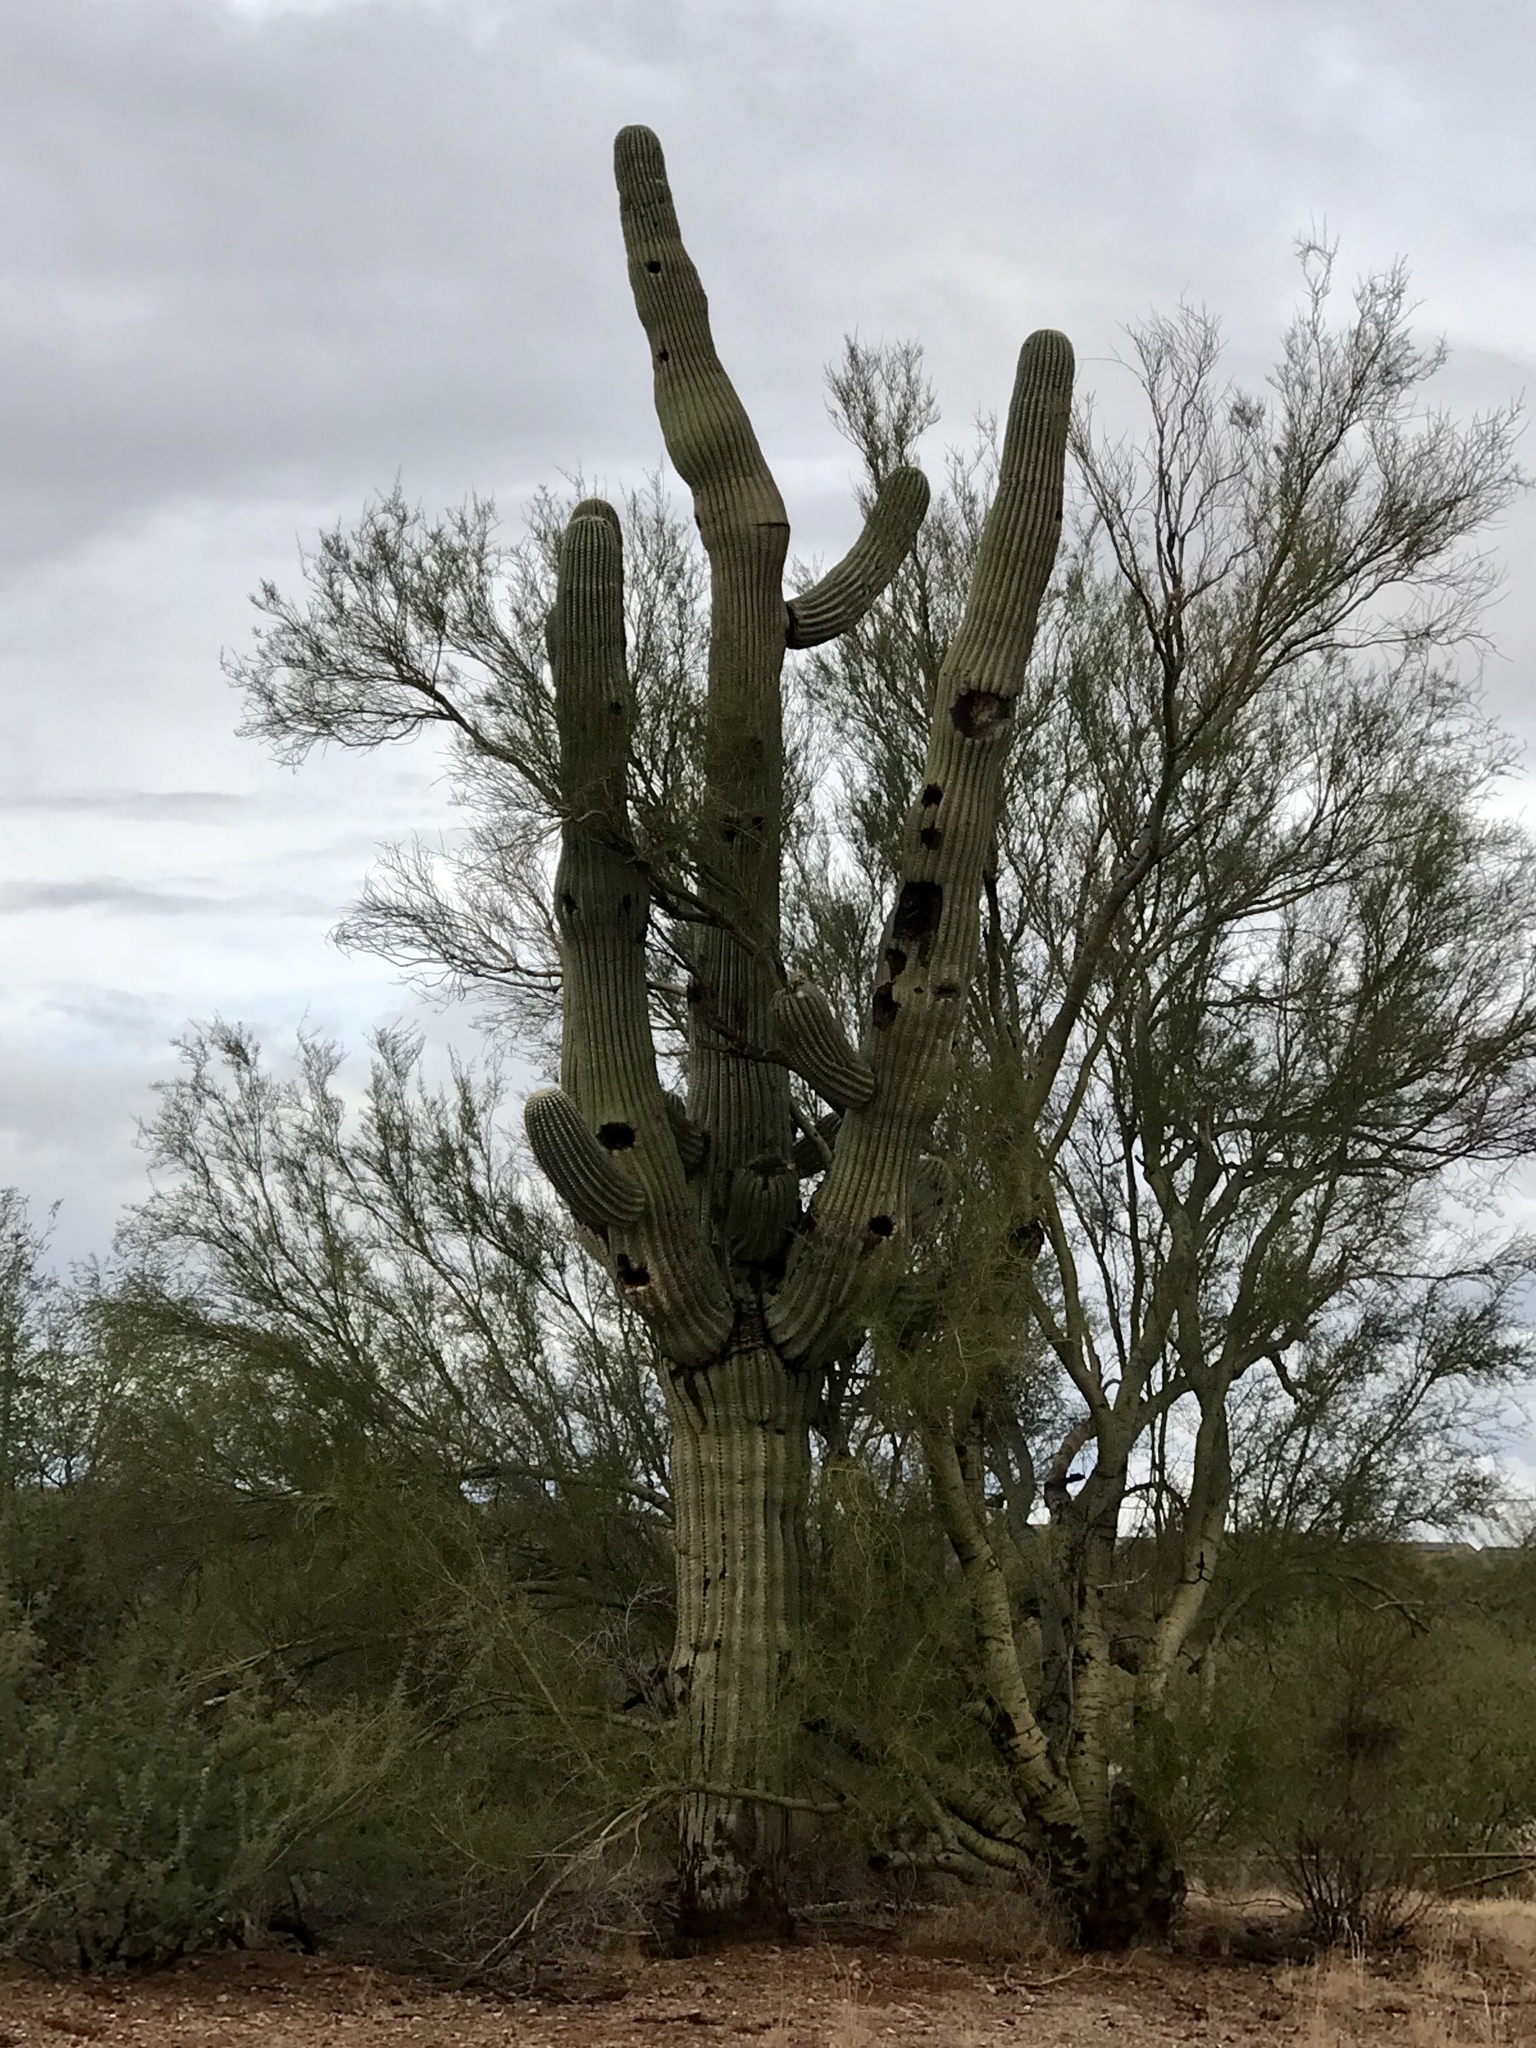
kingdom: Plantae
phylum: Tracheophyta
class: Magnoliopsida
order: Caryophyllales
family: Cactaceae
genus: Carnegiea
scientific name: Carnegiea gigantea
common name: Saguaro
